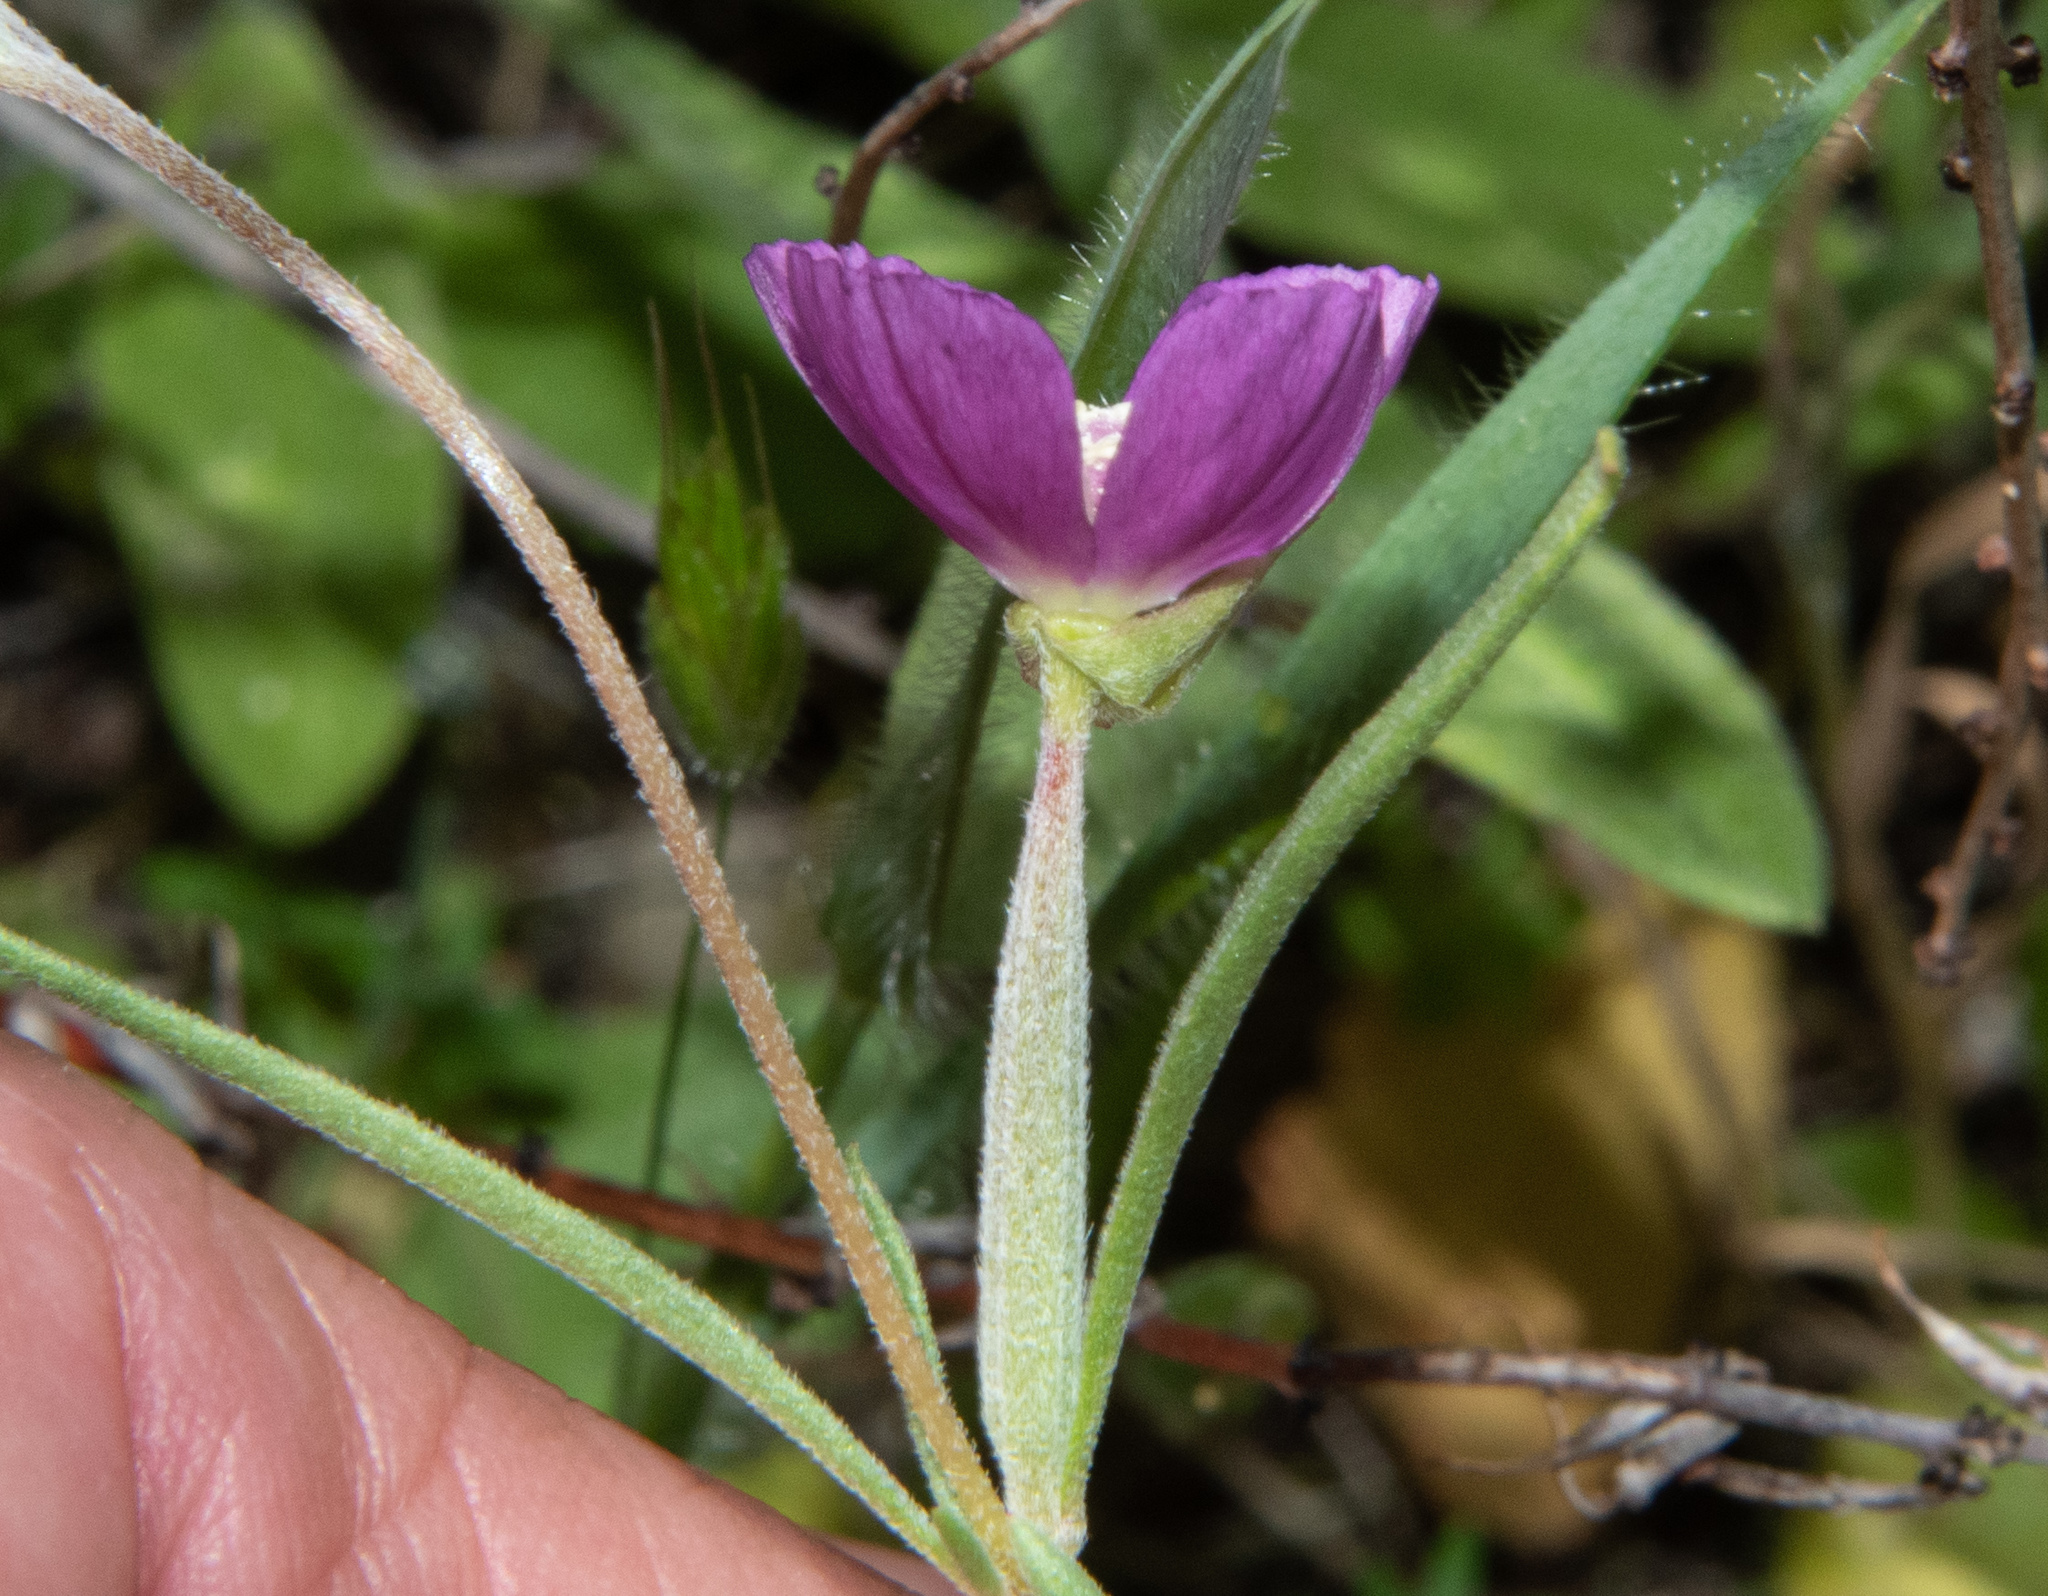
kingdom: Plantae
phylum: Tracheophyta
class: Magnoliopsida
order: Myrtales
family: Onagraceae
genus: Clarkia
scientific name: Clarkia purpurea
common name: Purple clarkia
